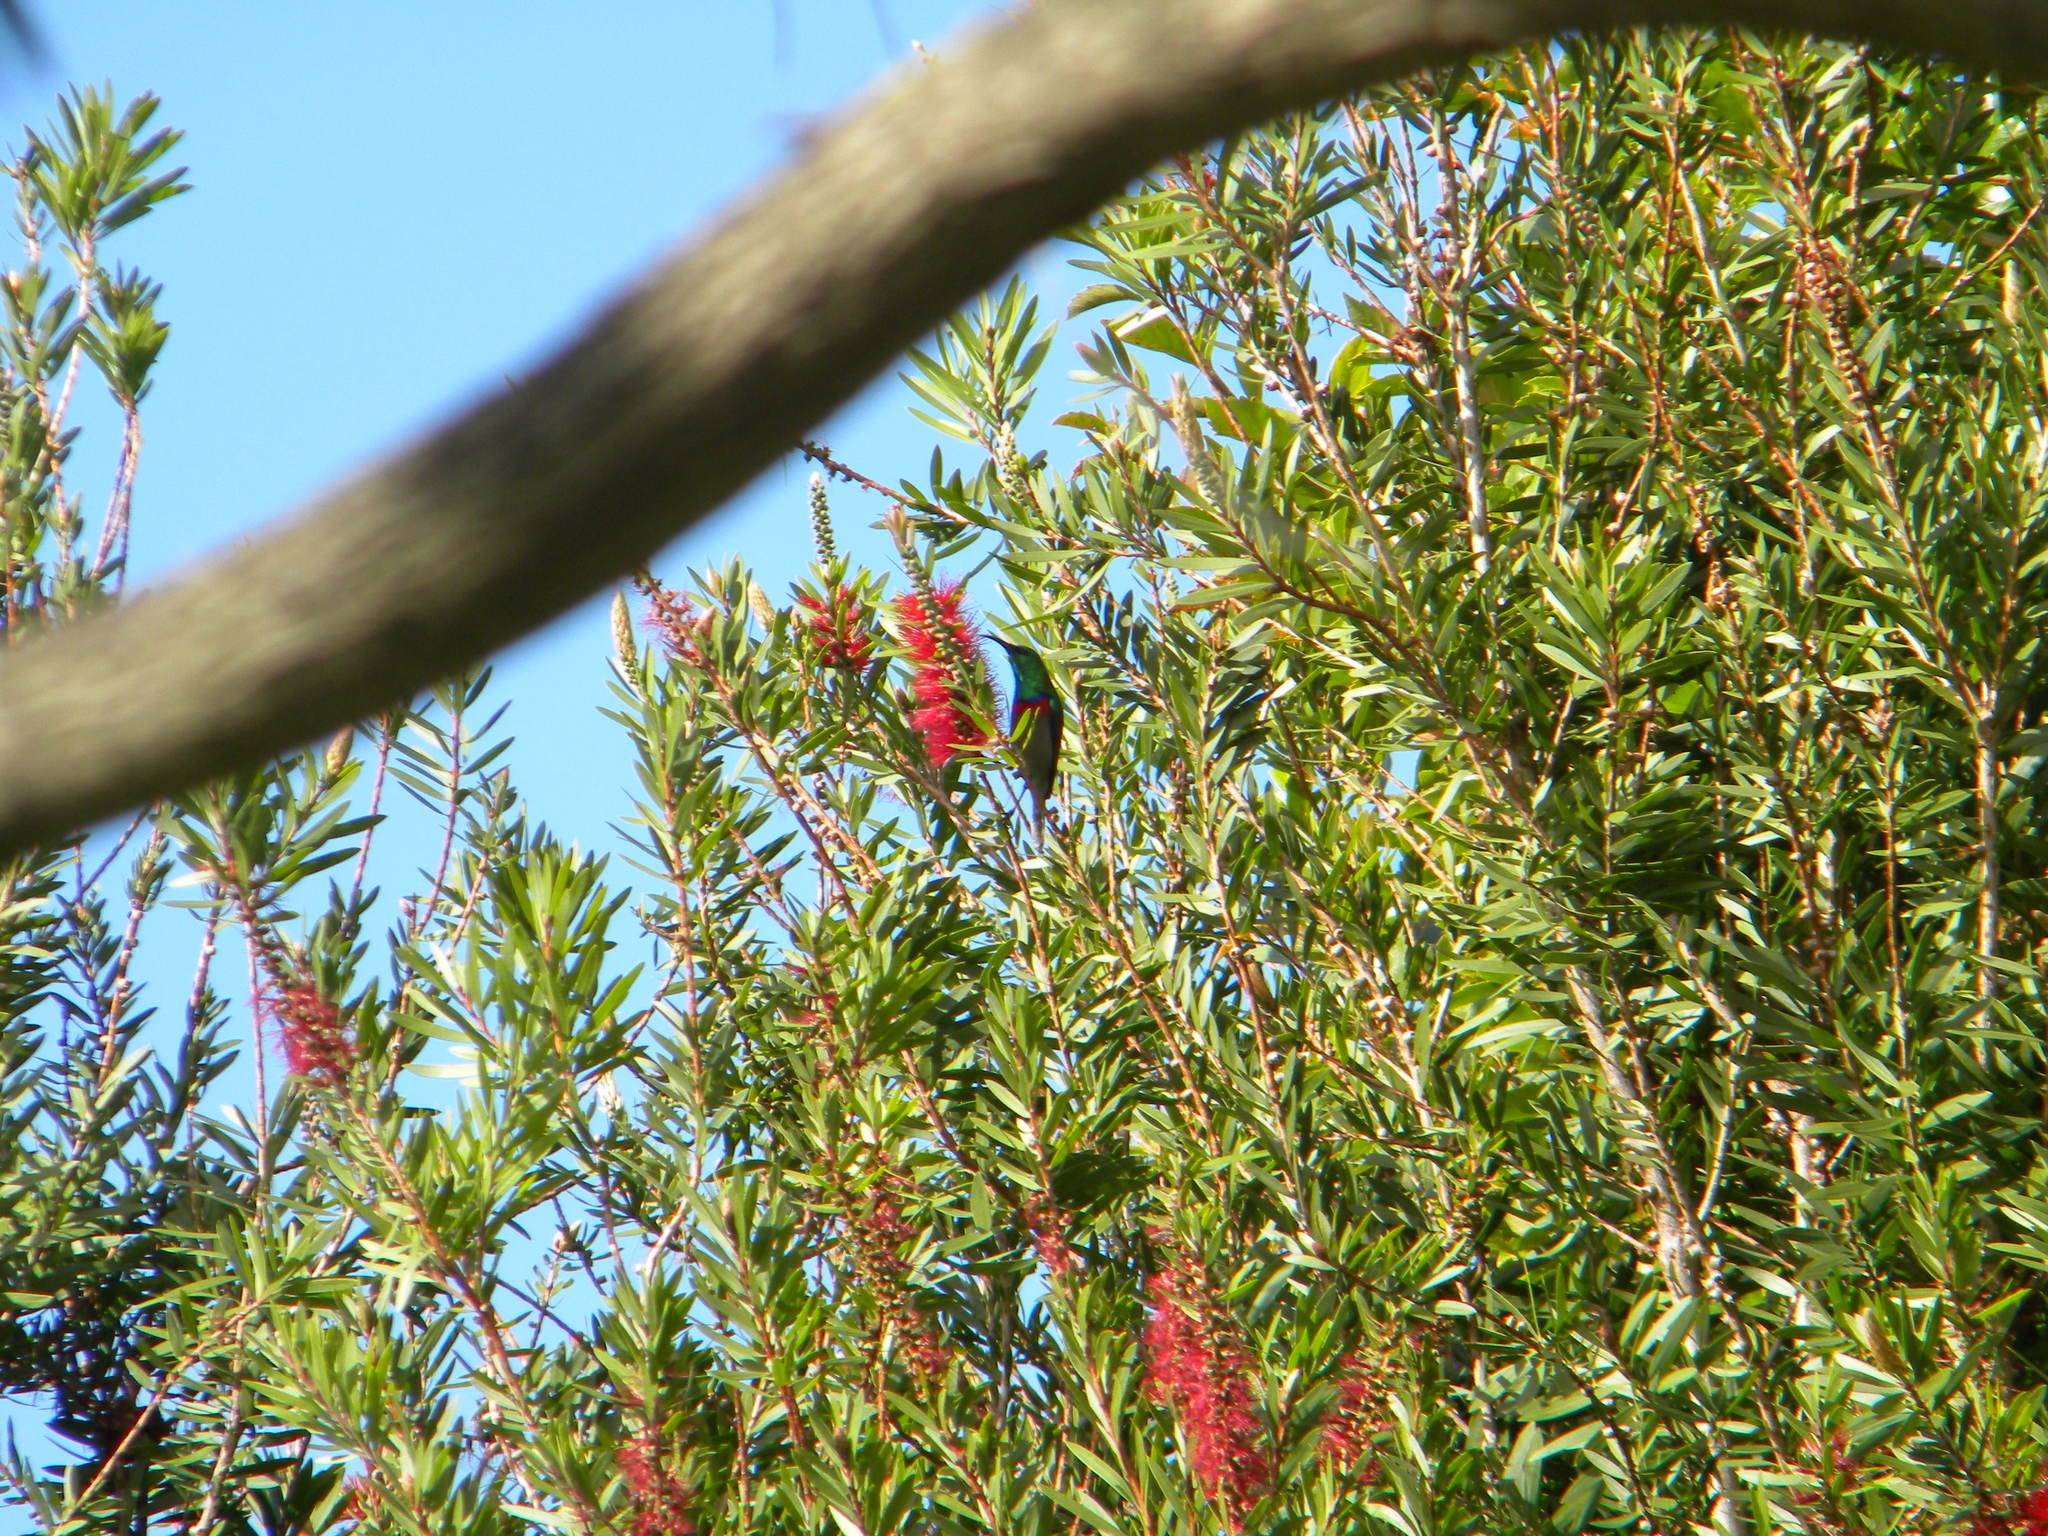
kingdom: Animalia
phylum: Chordata
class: Aves
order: Passeriformes
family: Nectariniidae
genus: Cinnyris
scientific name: Cinnyris chalybeus
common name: Southern double-collared sunbird
